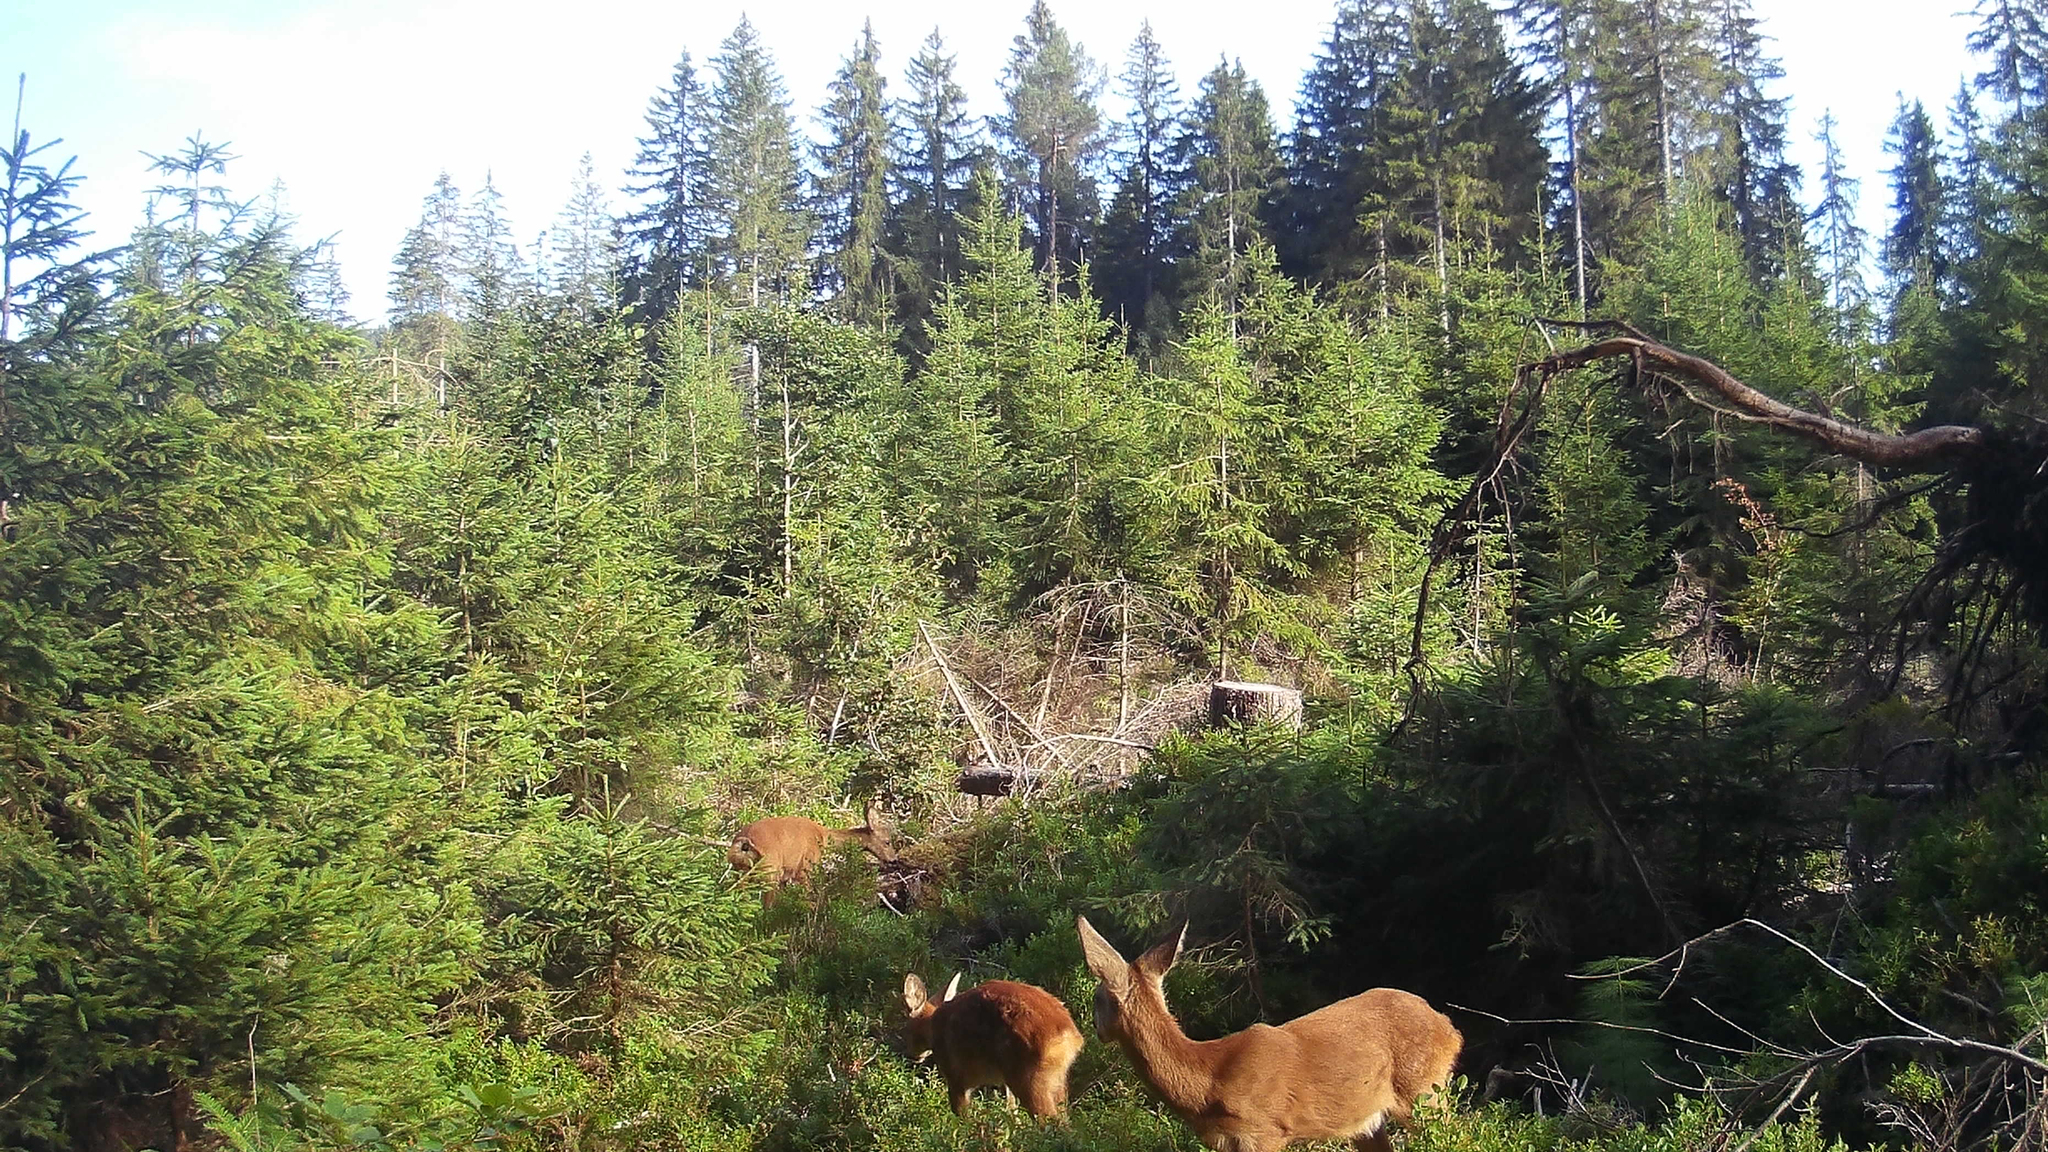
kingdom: Animalia
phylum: Chordata
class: Mammalia
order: Artiodactyla
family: Cervidae
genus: Capreolus
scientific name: Capreolus capreolus
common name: Western roe deer
